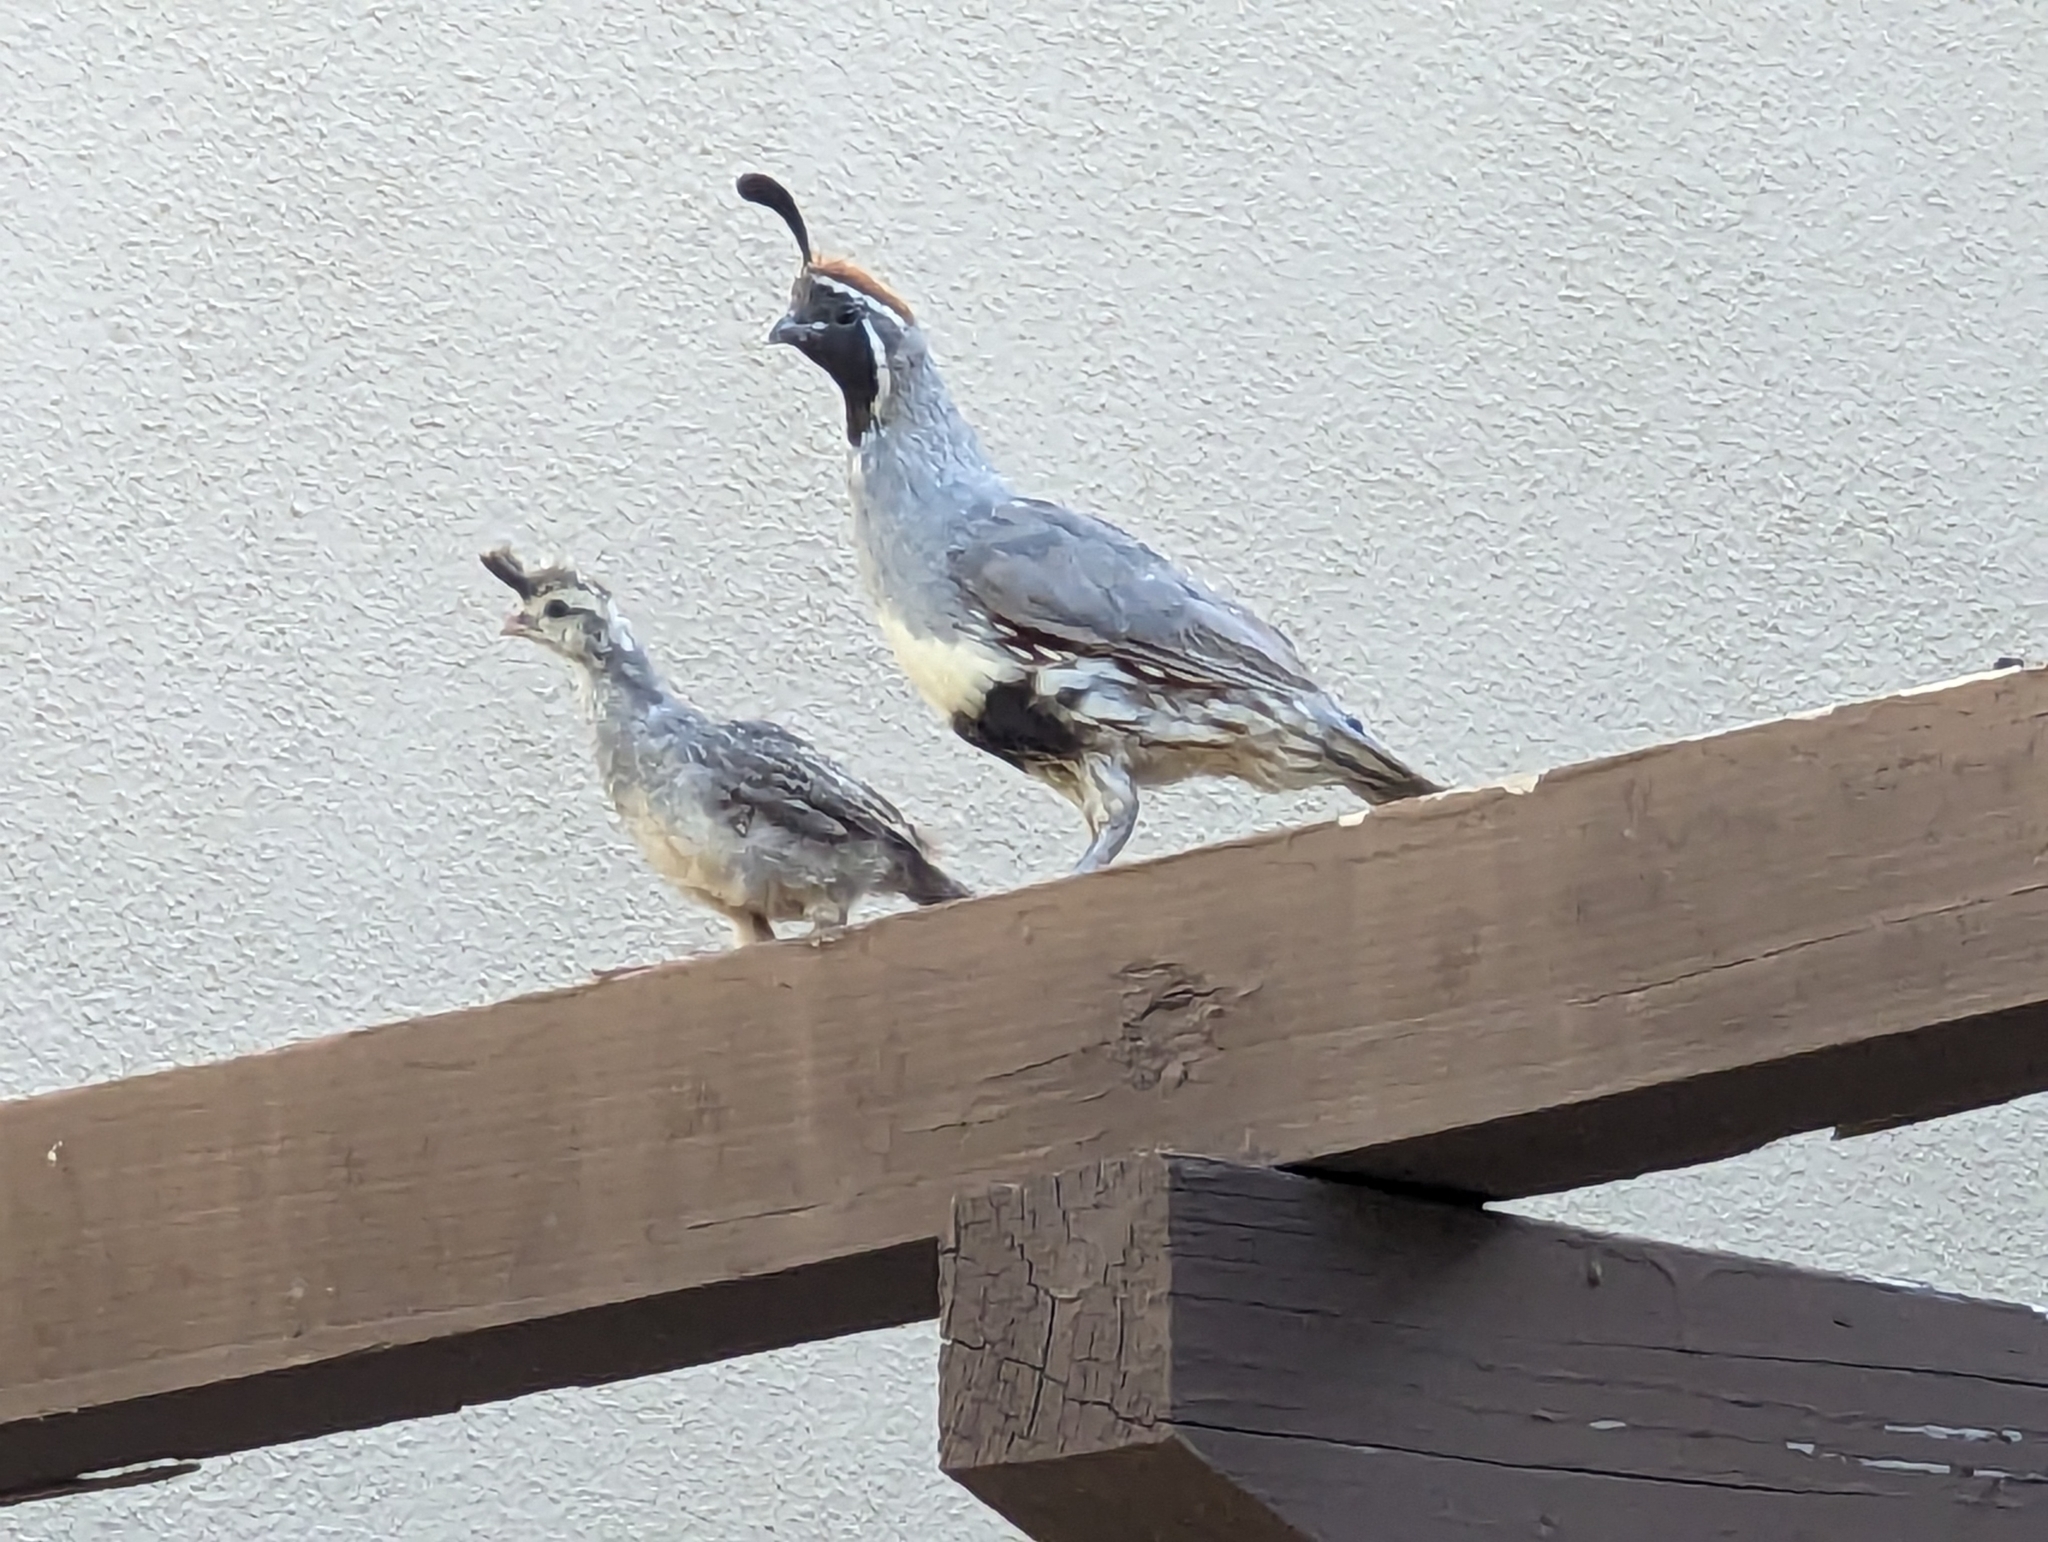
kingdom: Animalia
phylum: Chordata
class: Aves
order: Galliformes
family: Odontophoridae
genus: Callipepla
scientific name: Callipepla gambelii
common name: Gambel's quail
